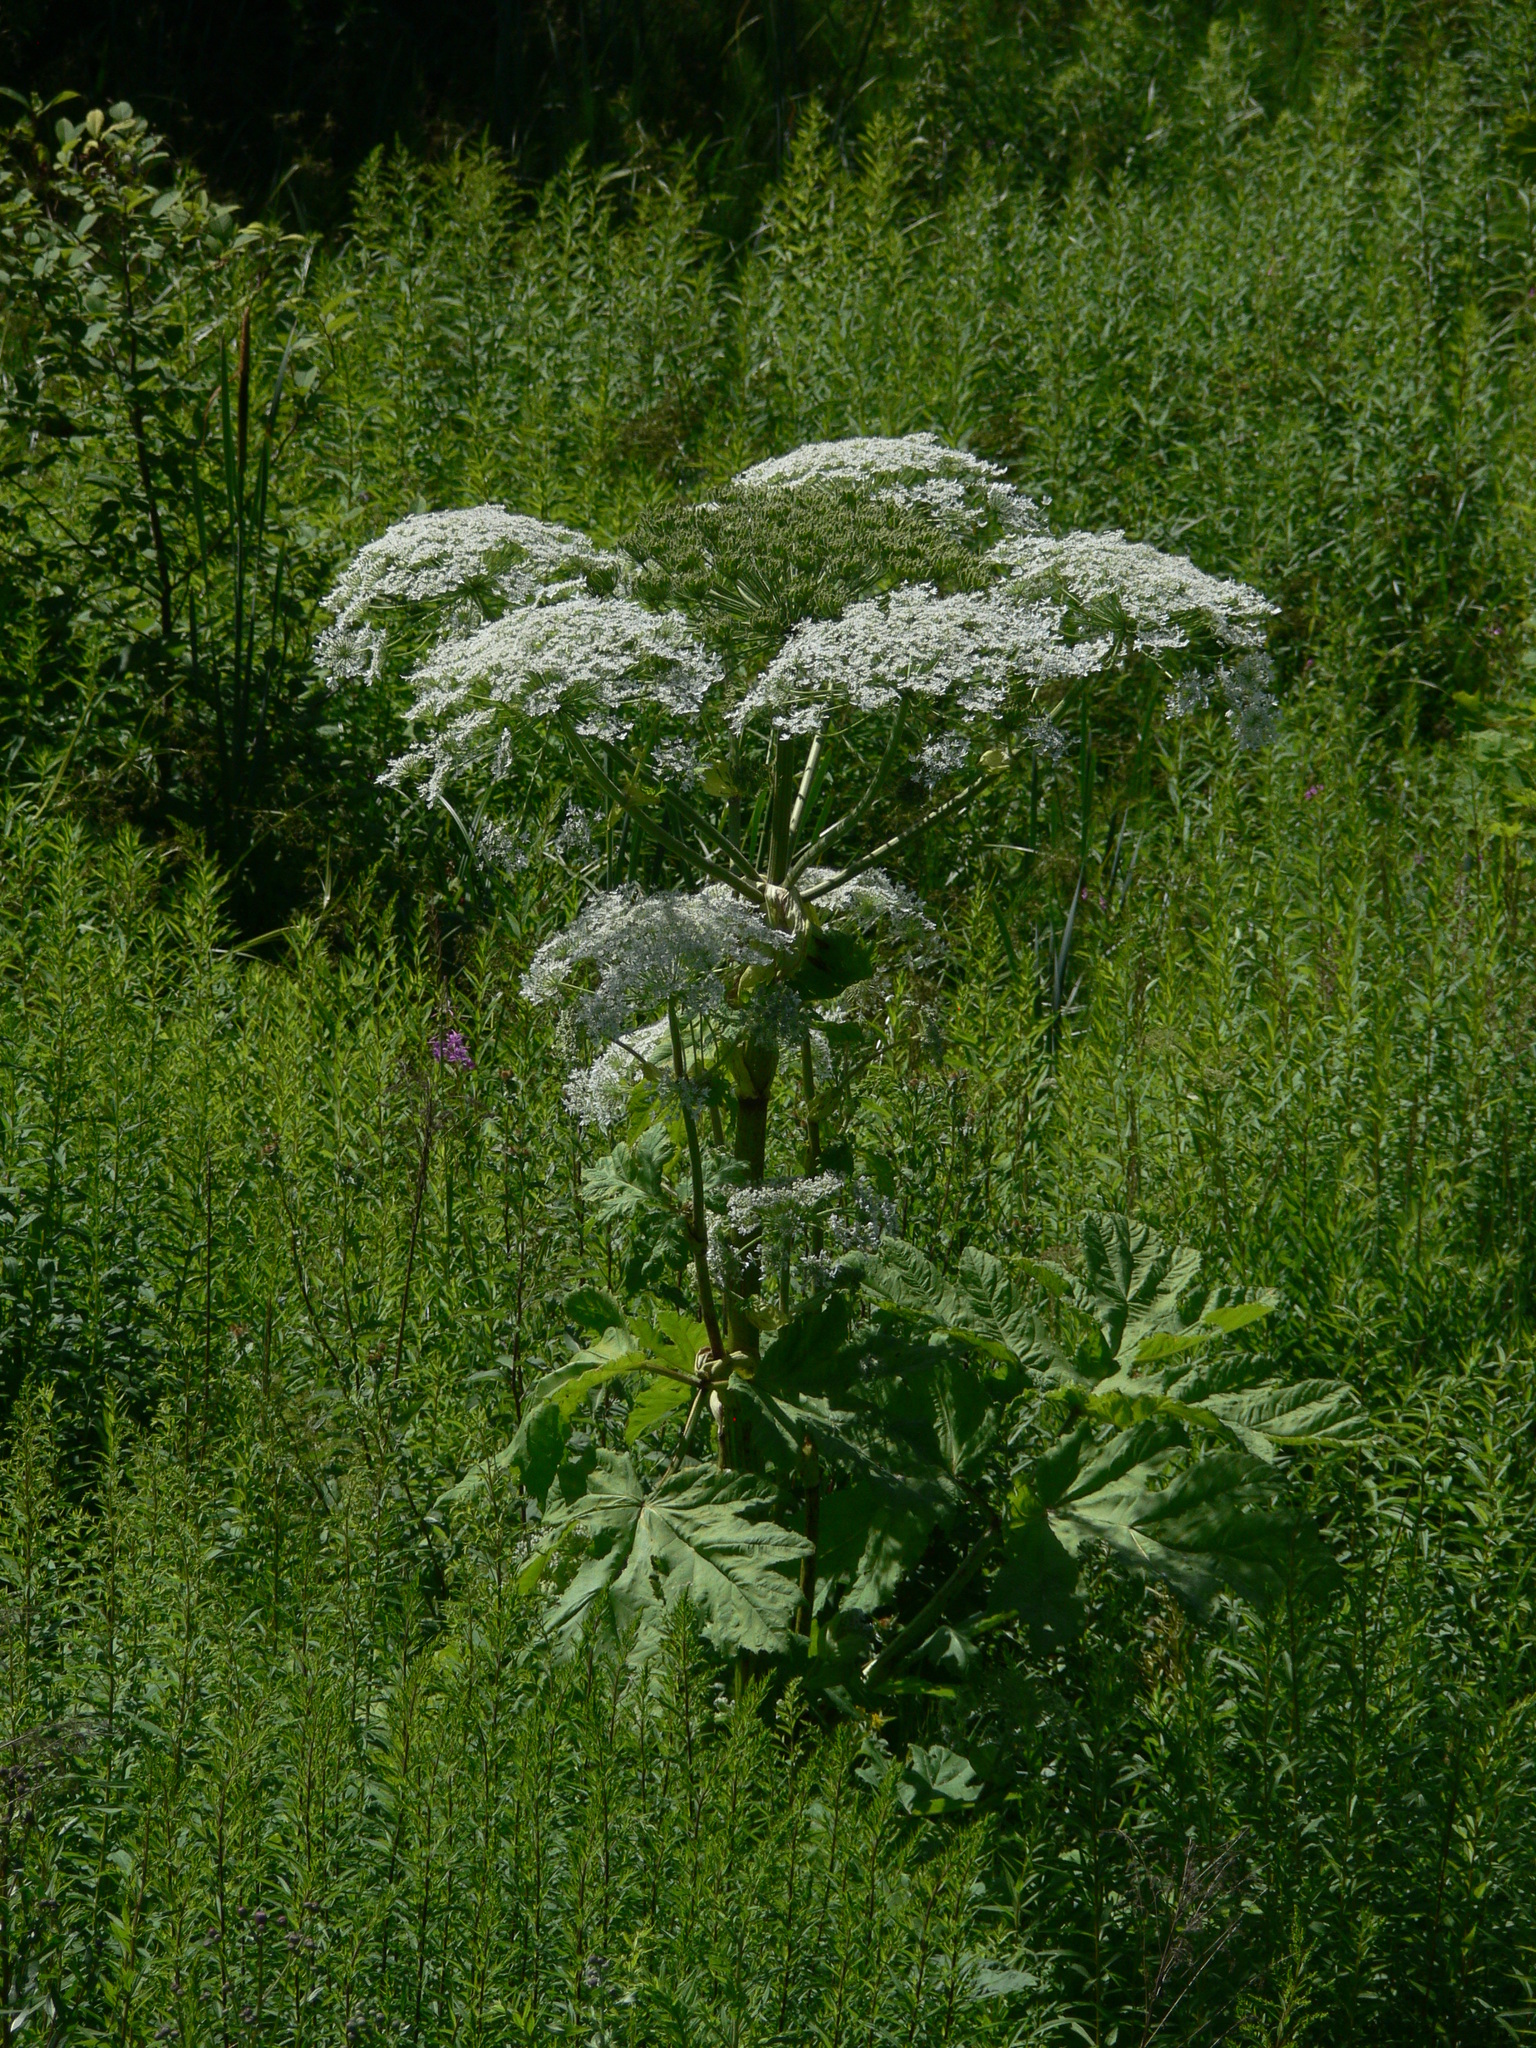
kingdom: Plantae
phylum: Tracheophyta
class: Magnoliopsida
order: Apiales
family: Apiaceae
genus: Heracleum
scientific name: Heracleum sosnowskyi
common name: Sosnowsky's hogweed
